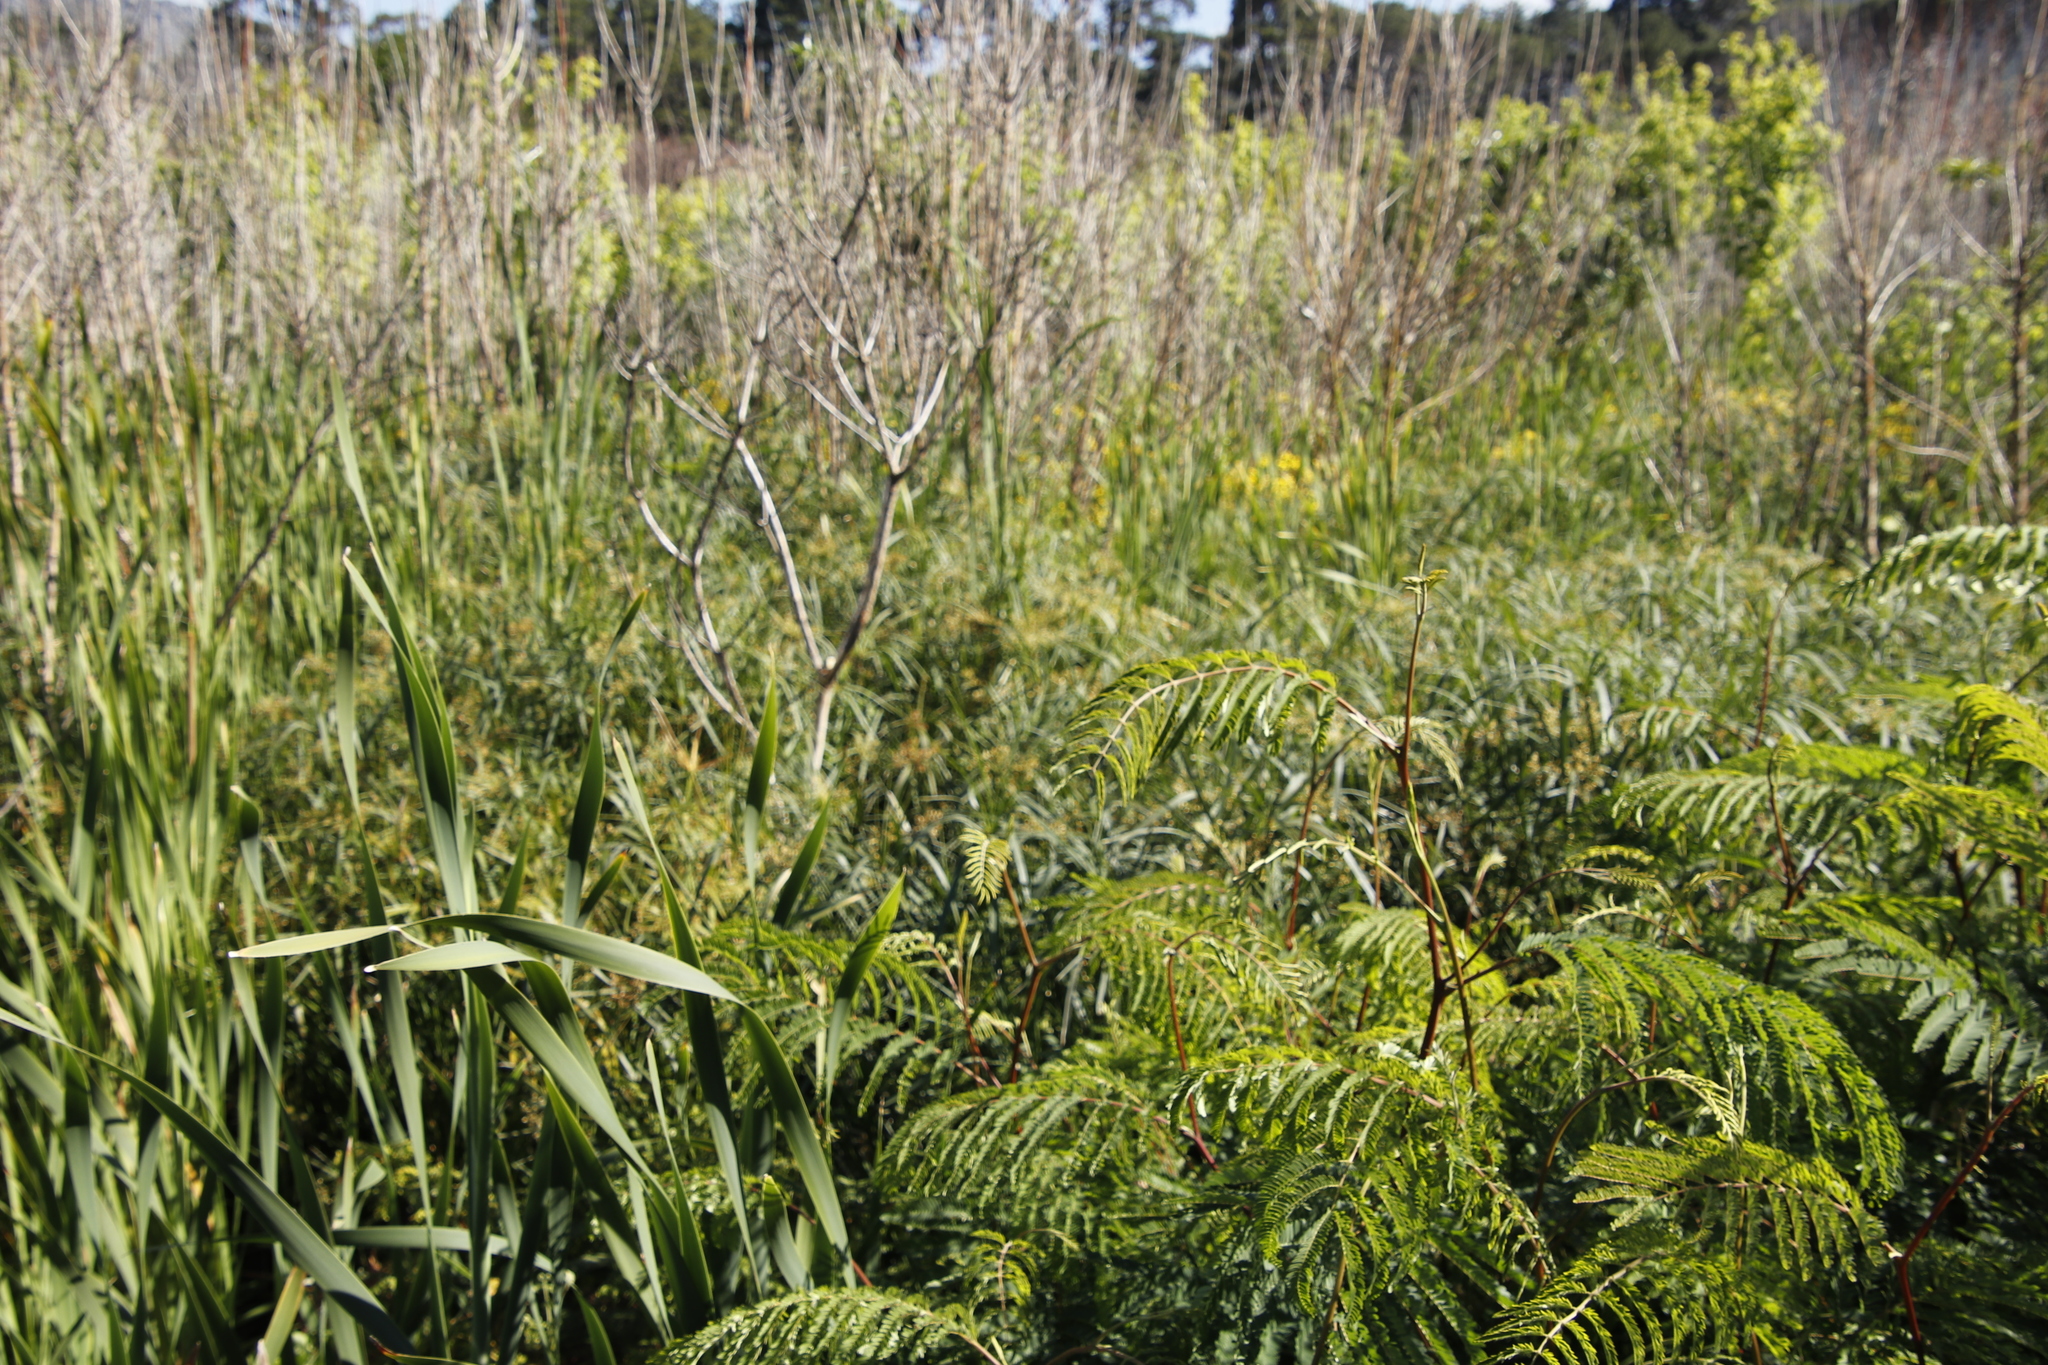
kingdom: Plantae
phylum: Tracheophyta
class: Magnoliopsida
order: Fabales
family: Fabaceae
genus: Paraserianthes
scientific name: Paraserianthes lophantha
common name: Plume albizia
